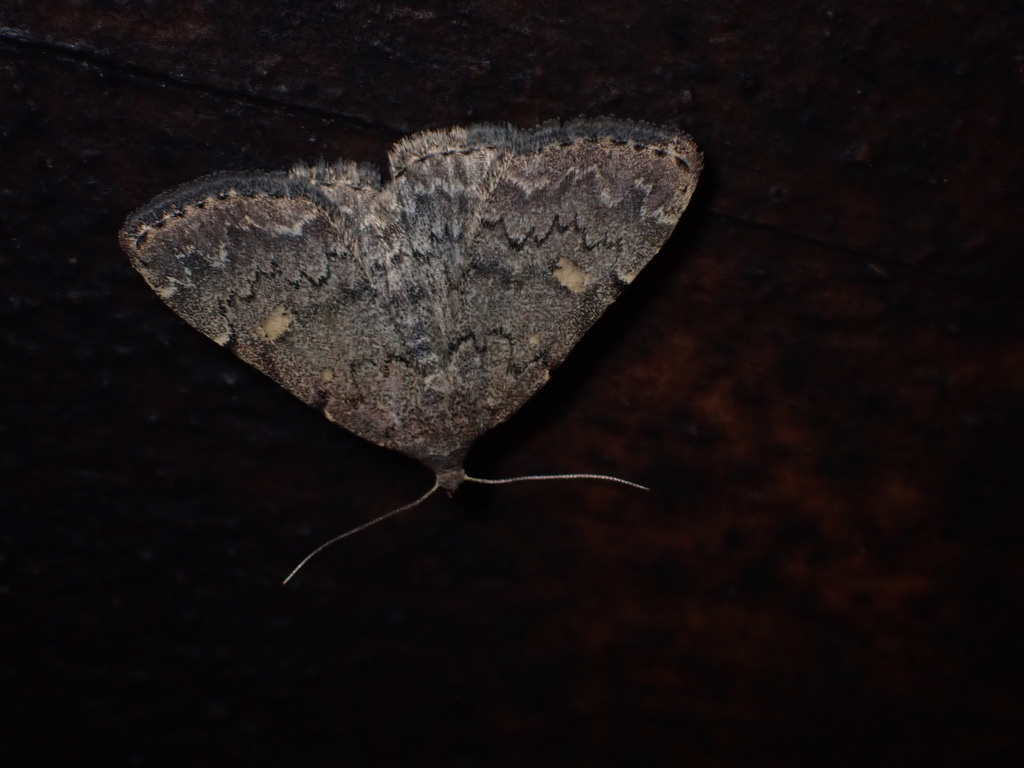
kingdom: Animalia
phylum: Arthropoda
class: Insecta
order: Lepidoptera
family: Erebidae
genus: Idia
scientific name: Idia aemula
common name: Common idia moth
